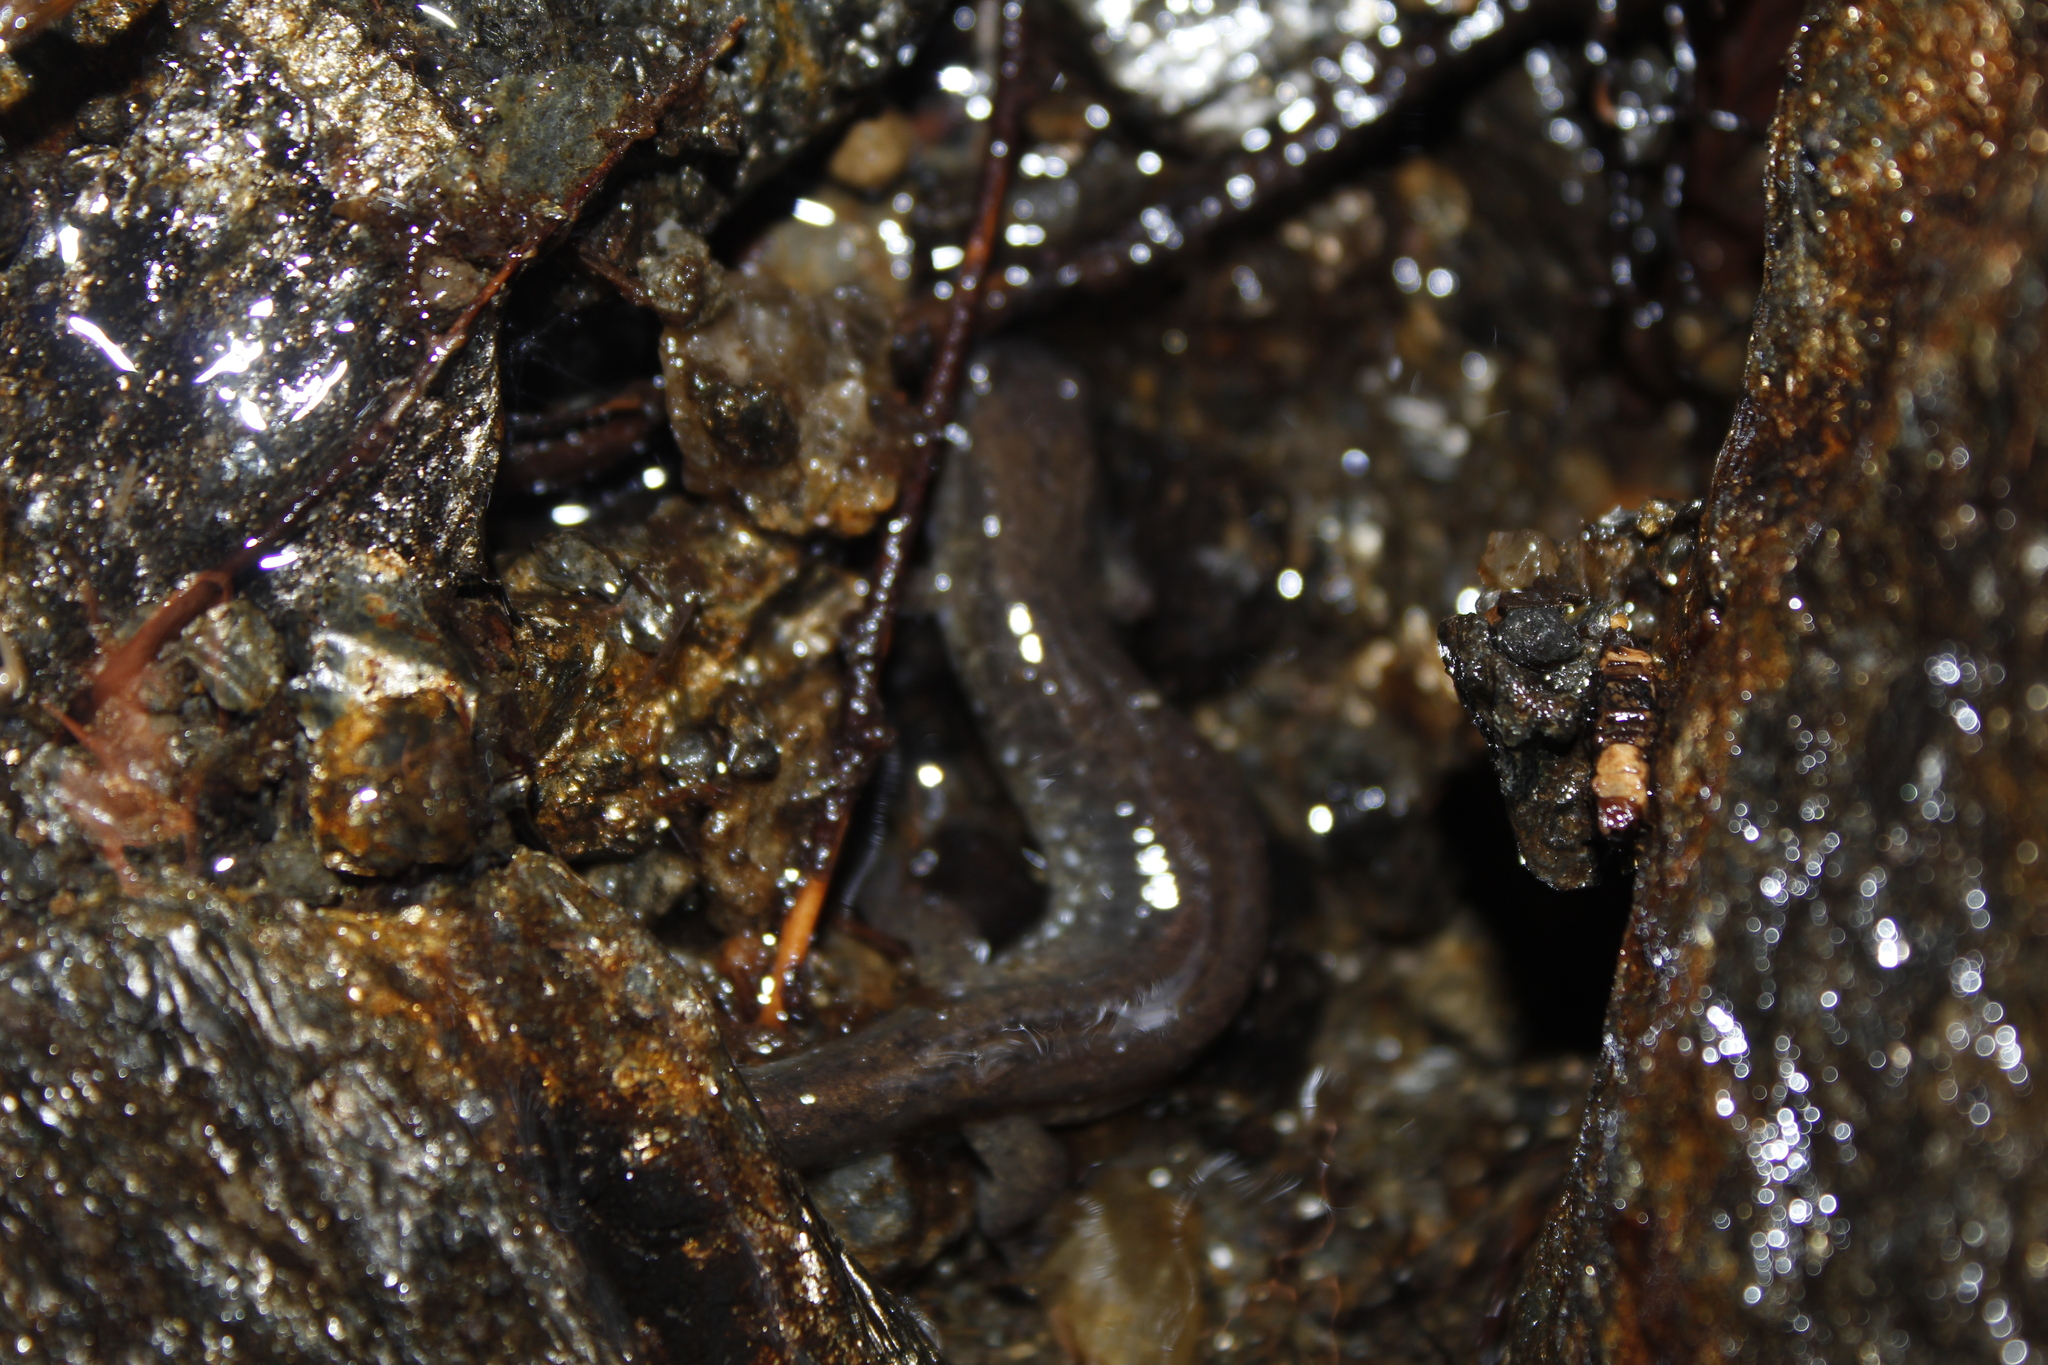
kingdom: Animalia
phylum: Chordata
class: Amphibia
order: Caudata
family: Plethodontidae
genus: Desmognathus
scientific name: Desmognathus fuscus
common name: Northern dusky salamander
